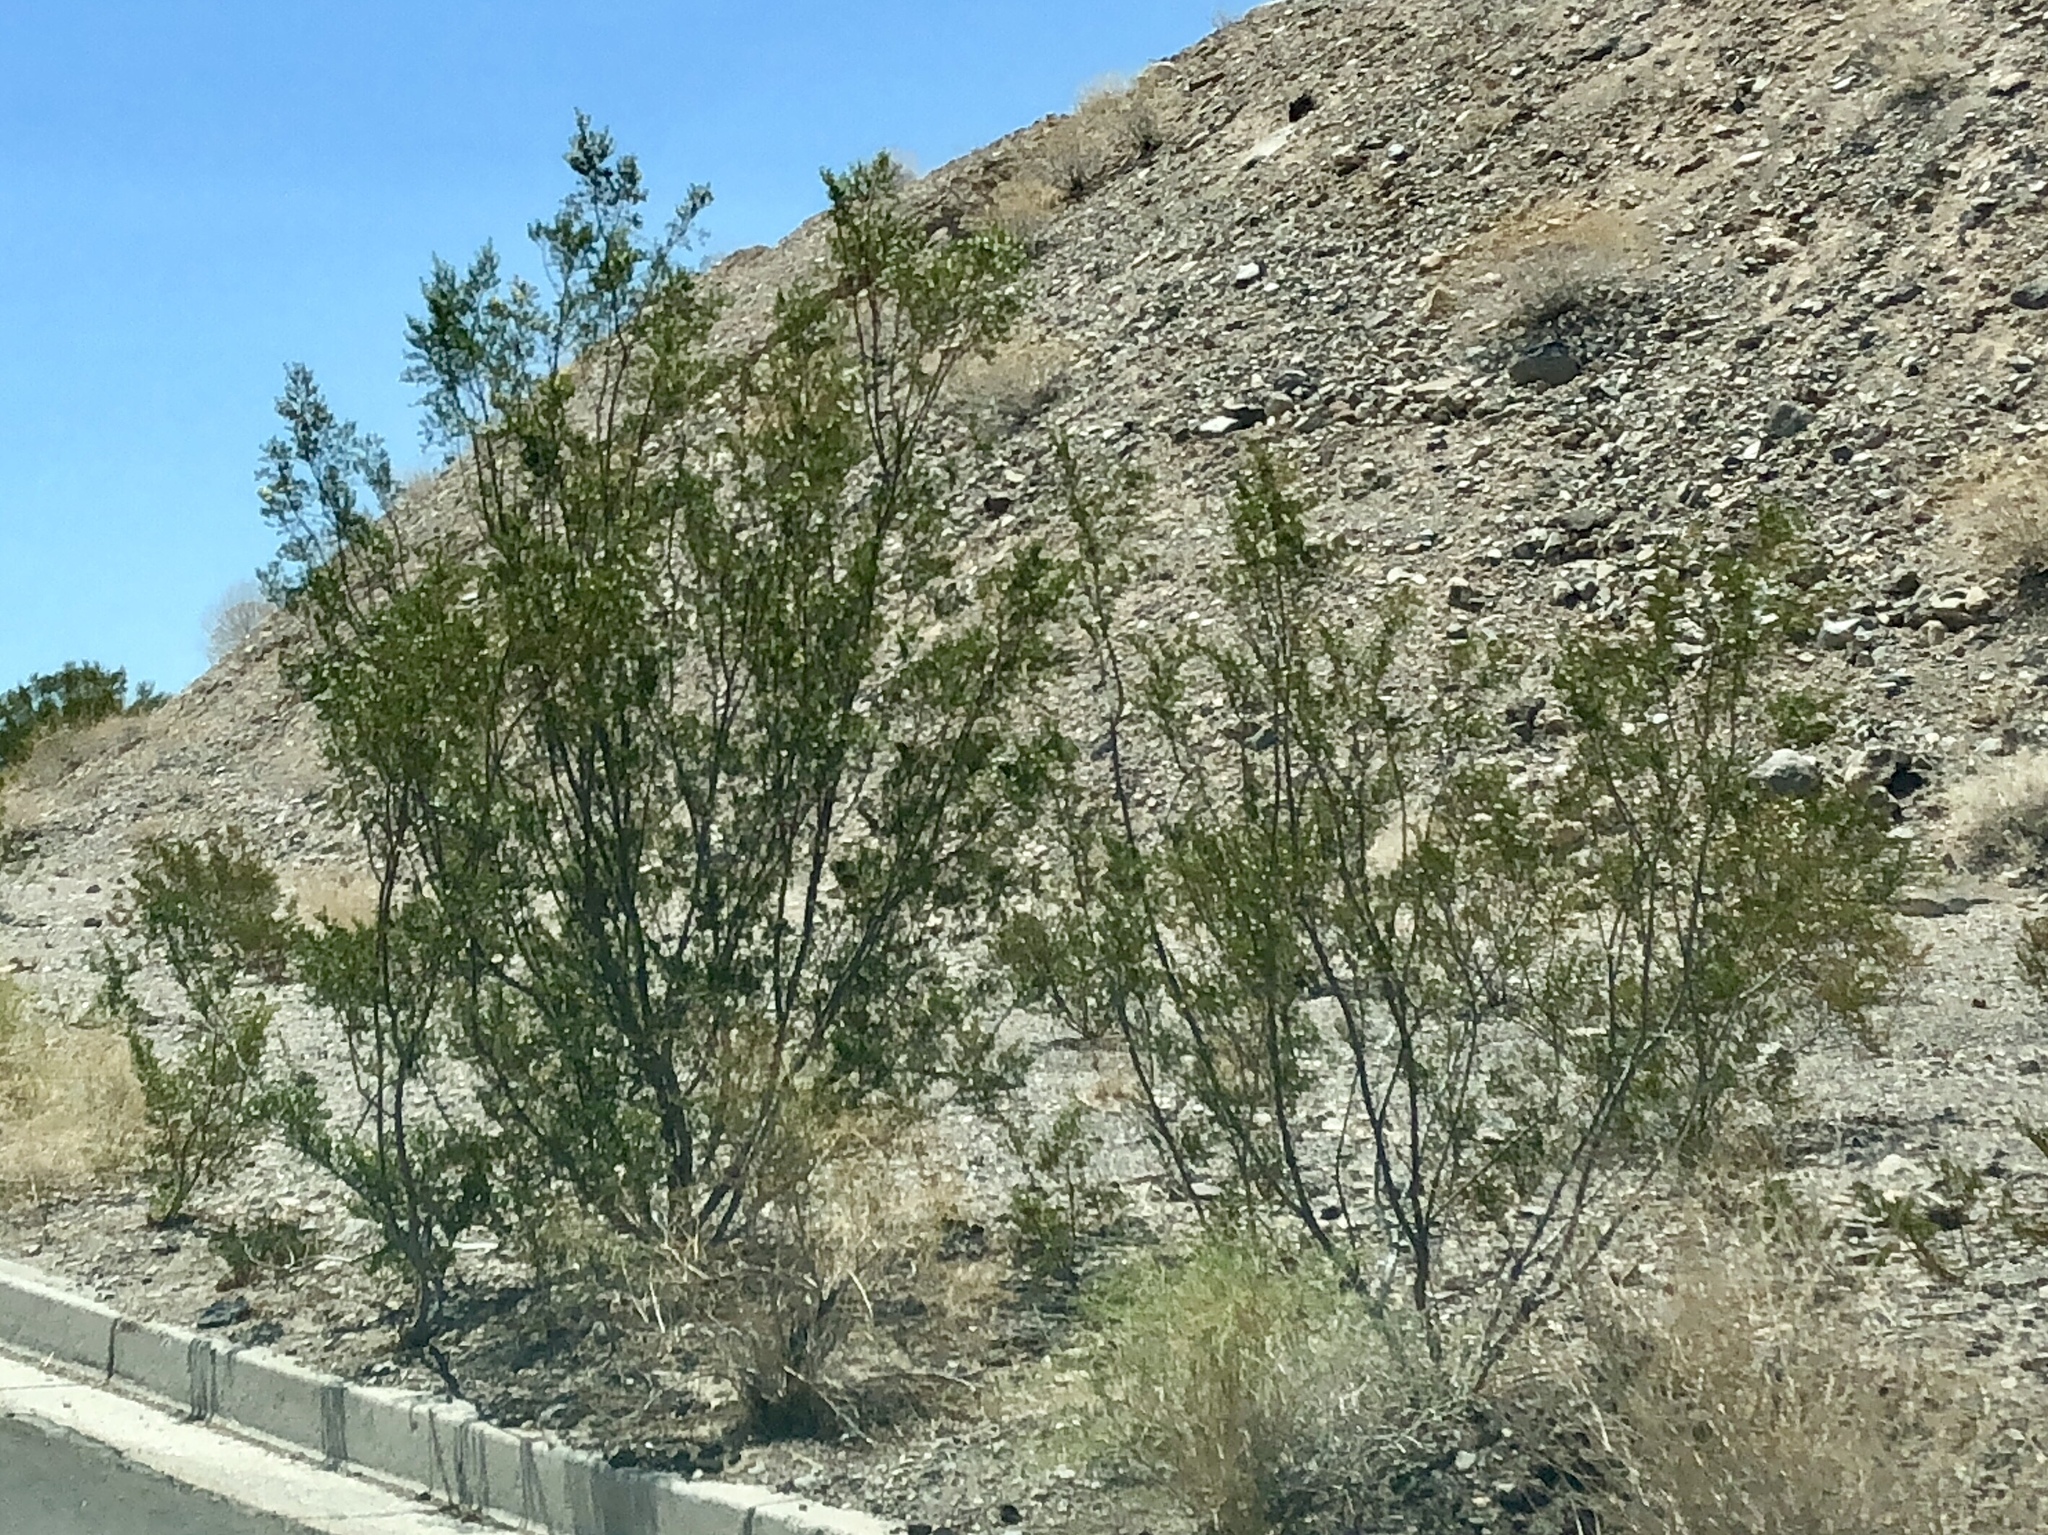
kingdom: Plantae
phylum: Tracheophyta
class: Magnoliopsida
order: Zygophyllales
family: Zygophyllaceae
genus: Larrea
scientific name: Larrea tridentata
